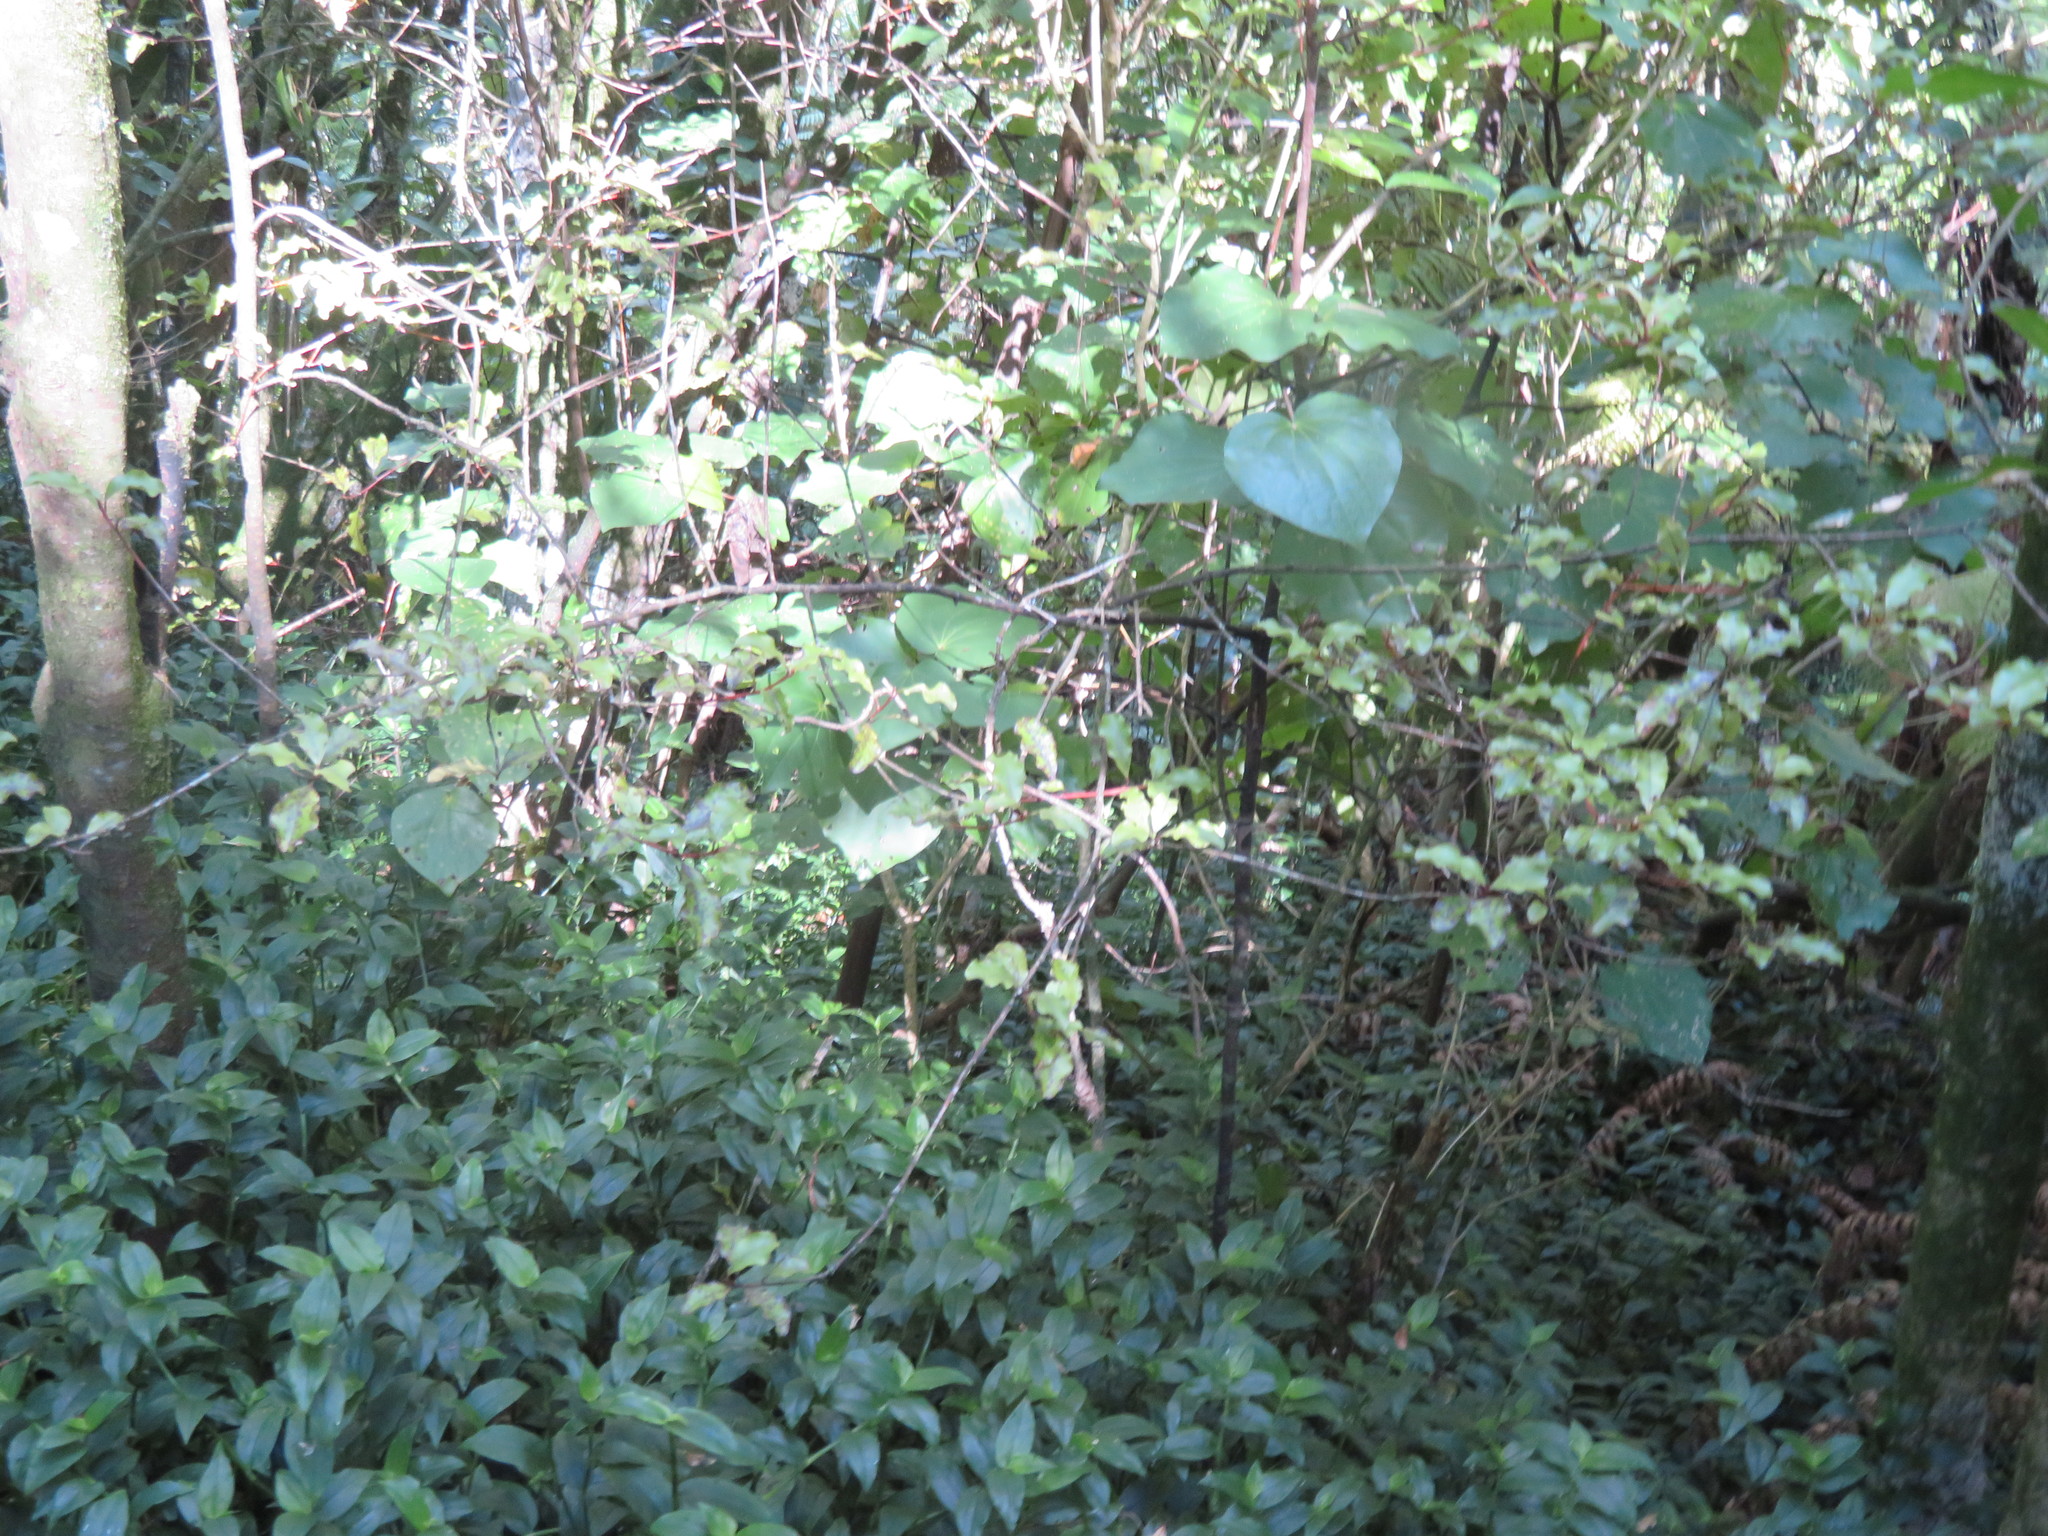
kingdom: Plantae
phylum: Tracheophyta
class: Liliopsida
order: Commelinales
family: Commelinaceae
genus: Tradescantia
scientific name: Tradescantia fluminensis
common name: Wandering-jew
